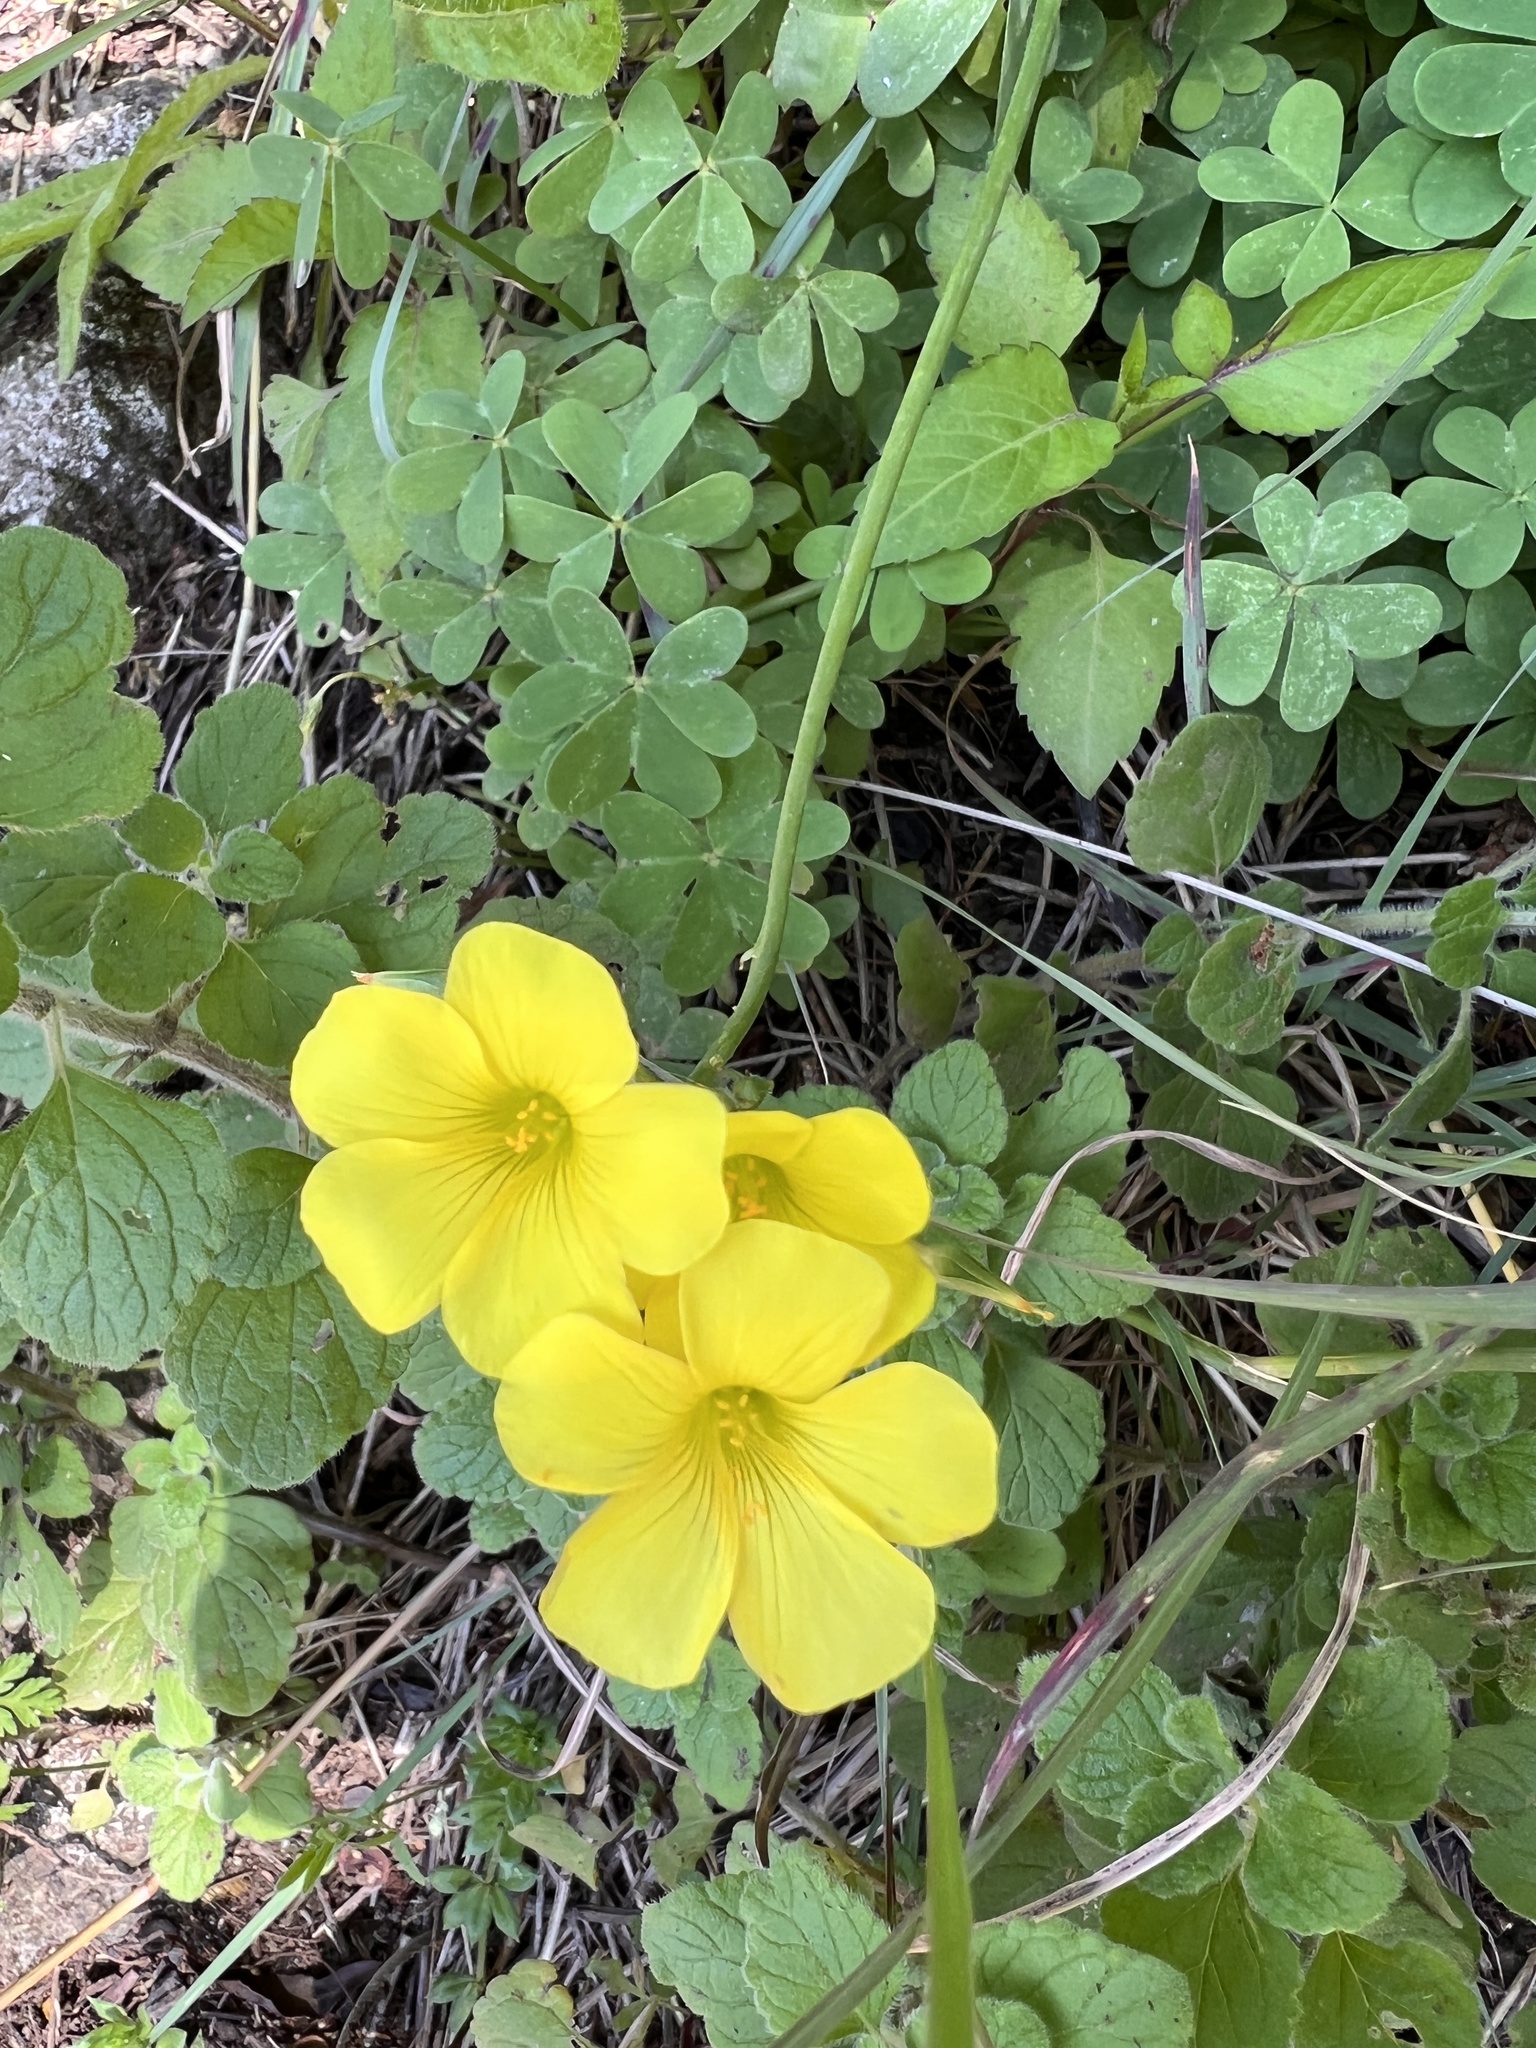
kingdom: Plantae
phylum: Tracheophyta
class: Magnoliopsida
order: Oxalidales
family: Oxalidaceae
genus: Oxalis
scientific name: Oxalis pes-caprae
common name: Bermuda-buttercup
